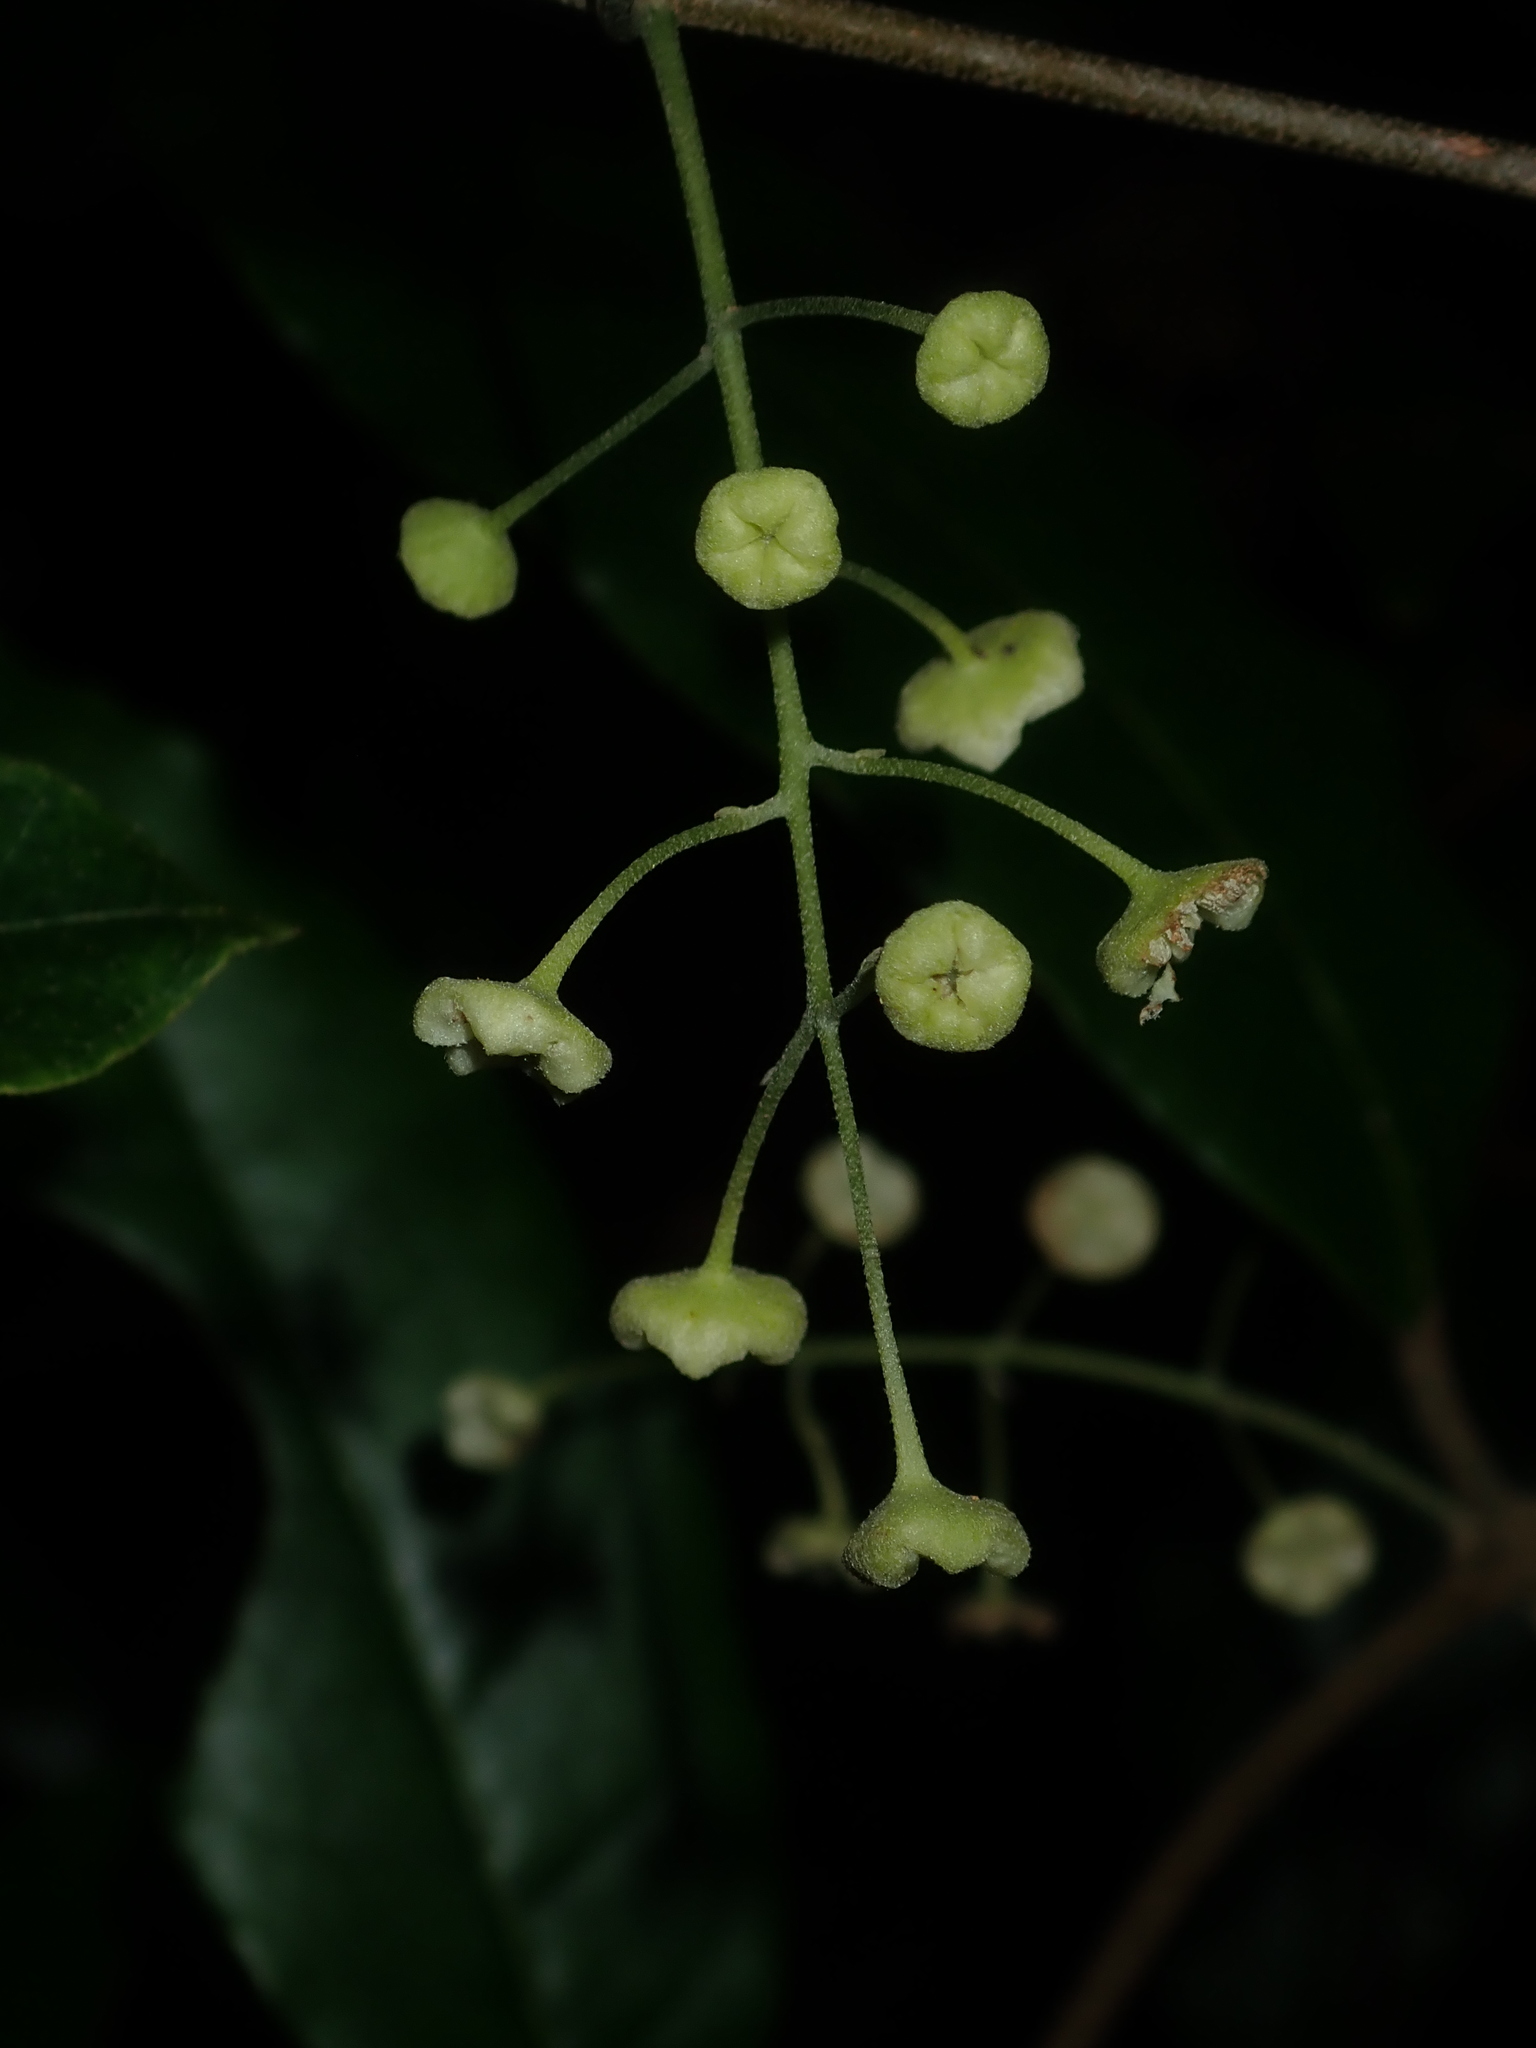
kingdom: Plantae
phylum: Tracheophyta
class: Magnoliopsida
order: Laurales
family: Monimiaceae
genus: Palmeria
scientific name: Palmeria scandens
